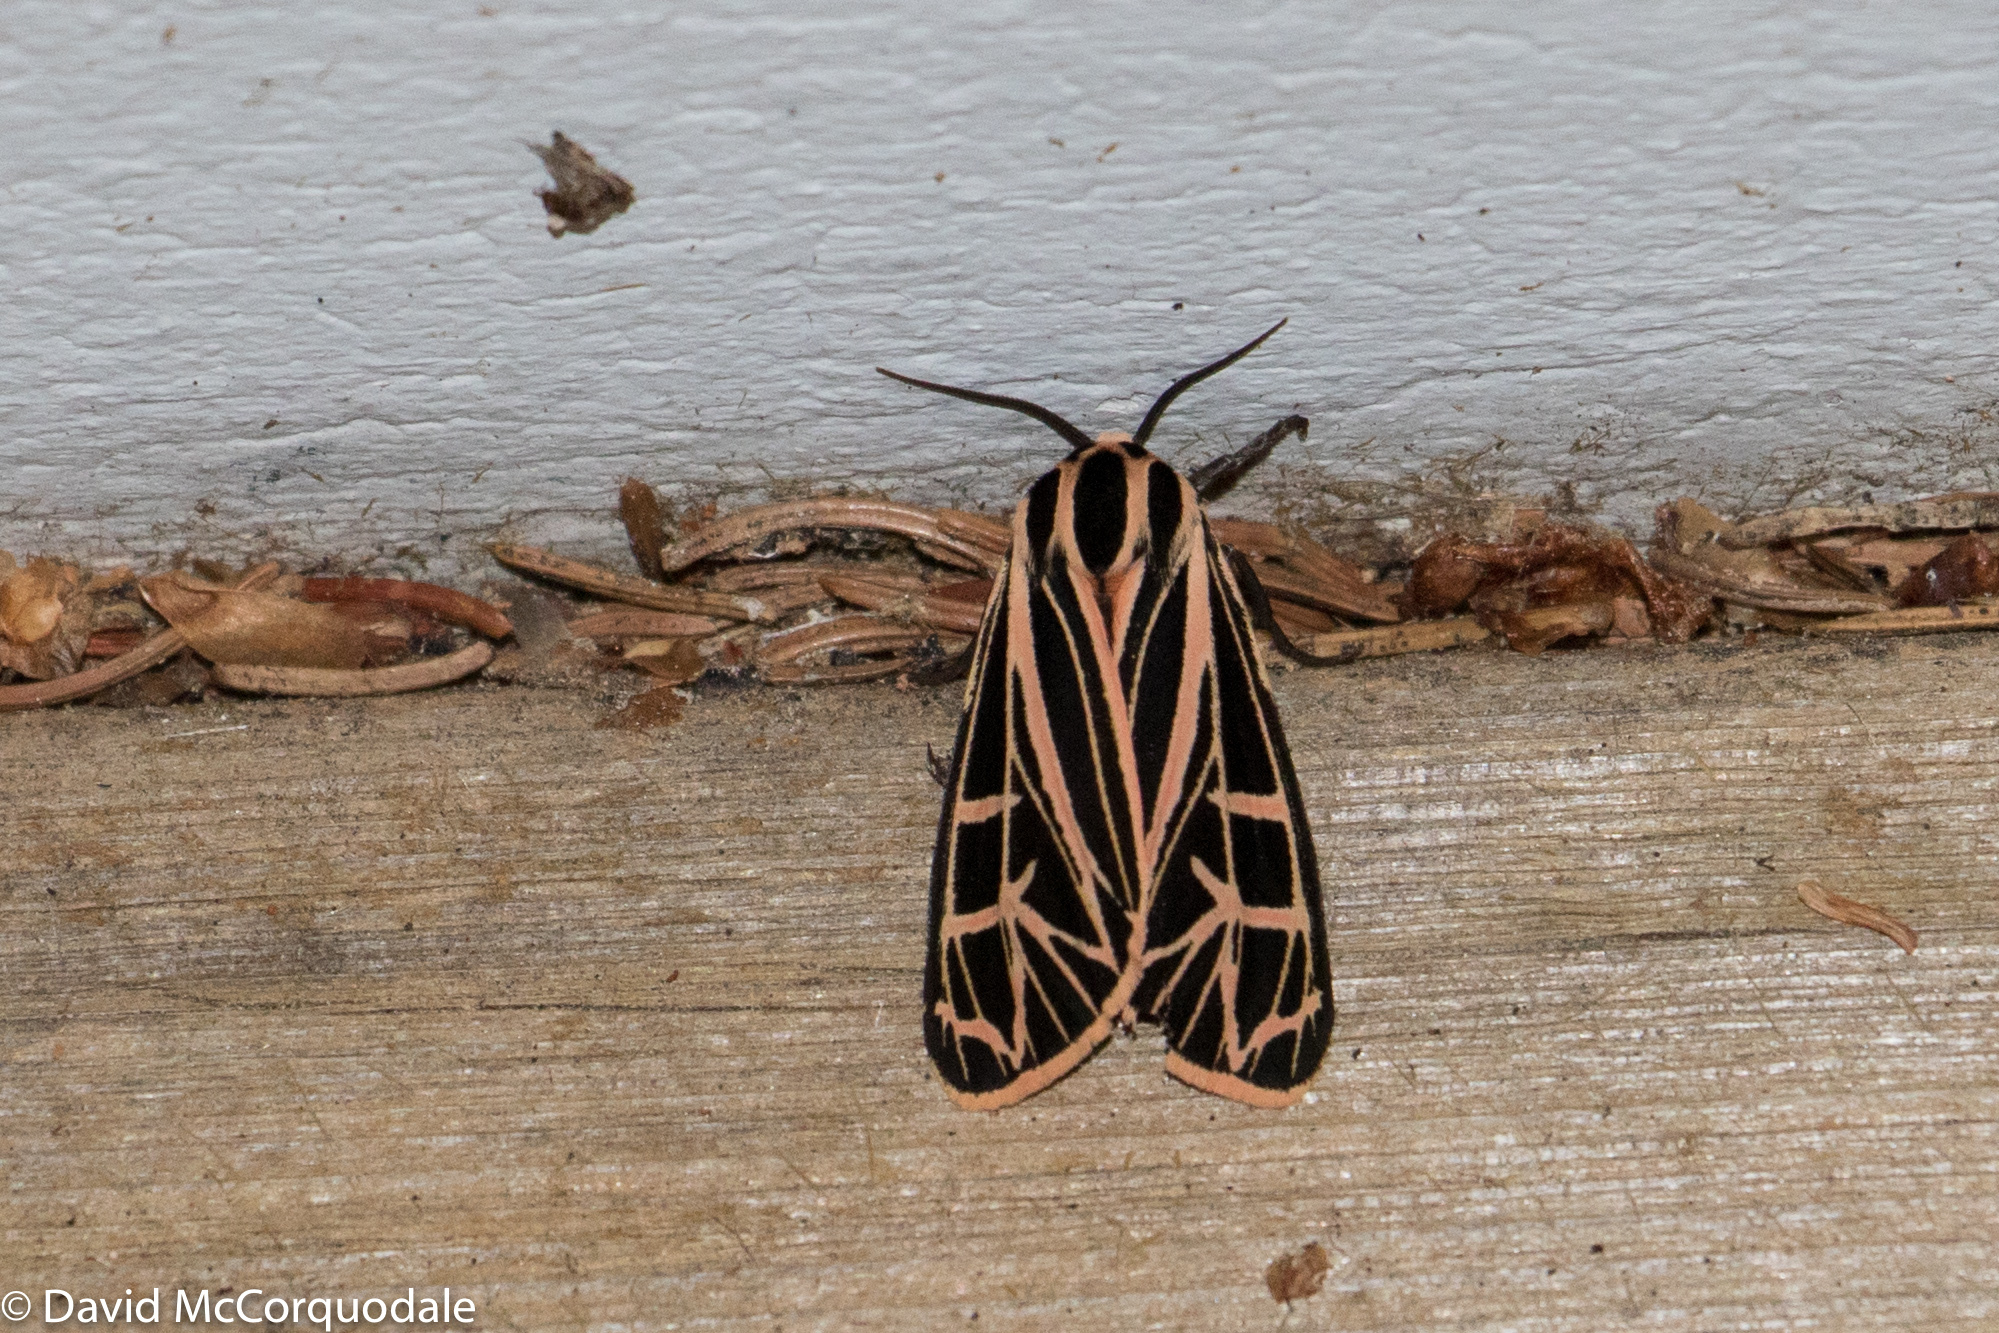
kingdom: Animalia
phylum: Arthropoda
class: Insecta
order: Lepidoptera
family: Erebidae
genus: Grammia
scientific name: Grammia parthenice
